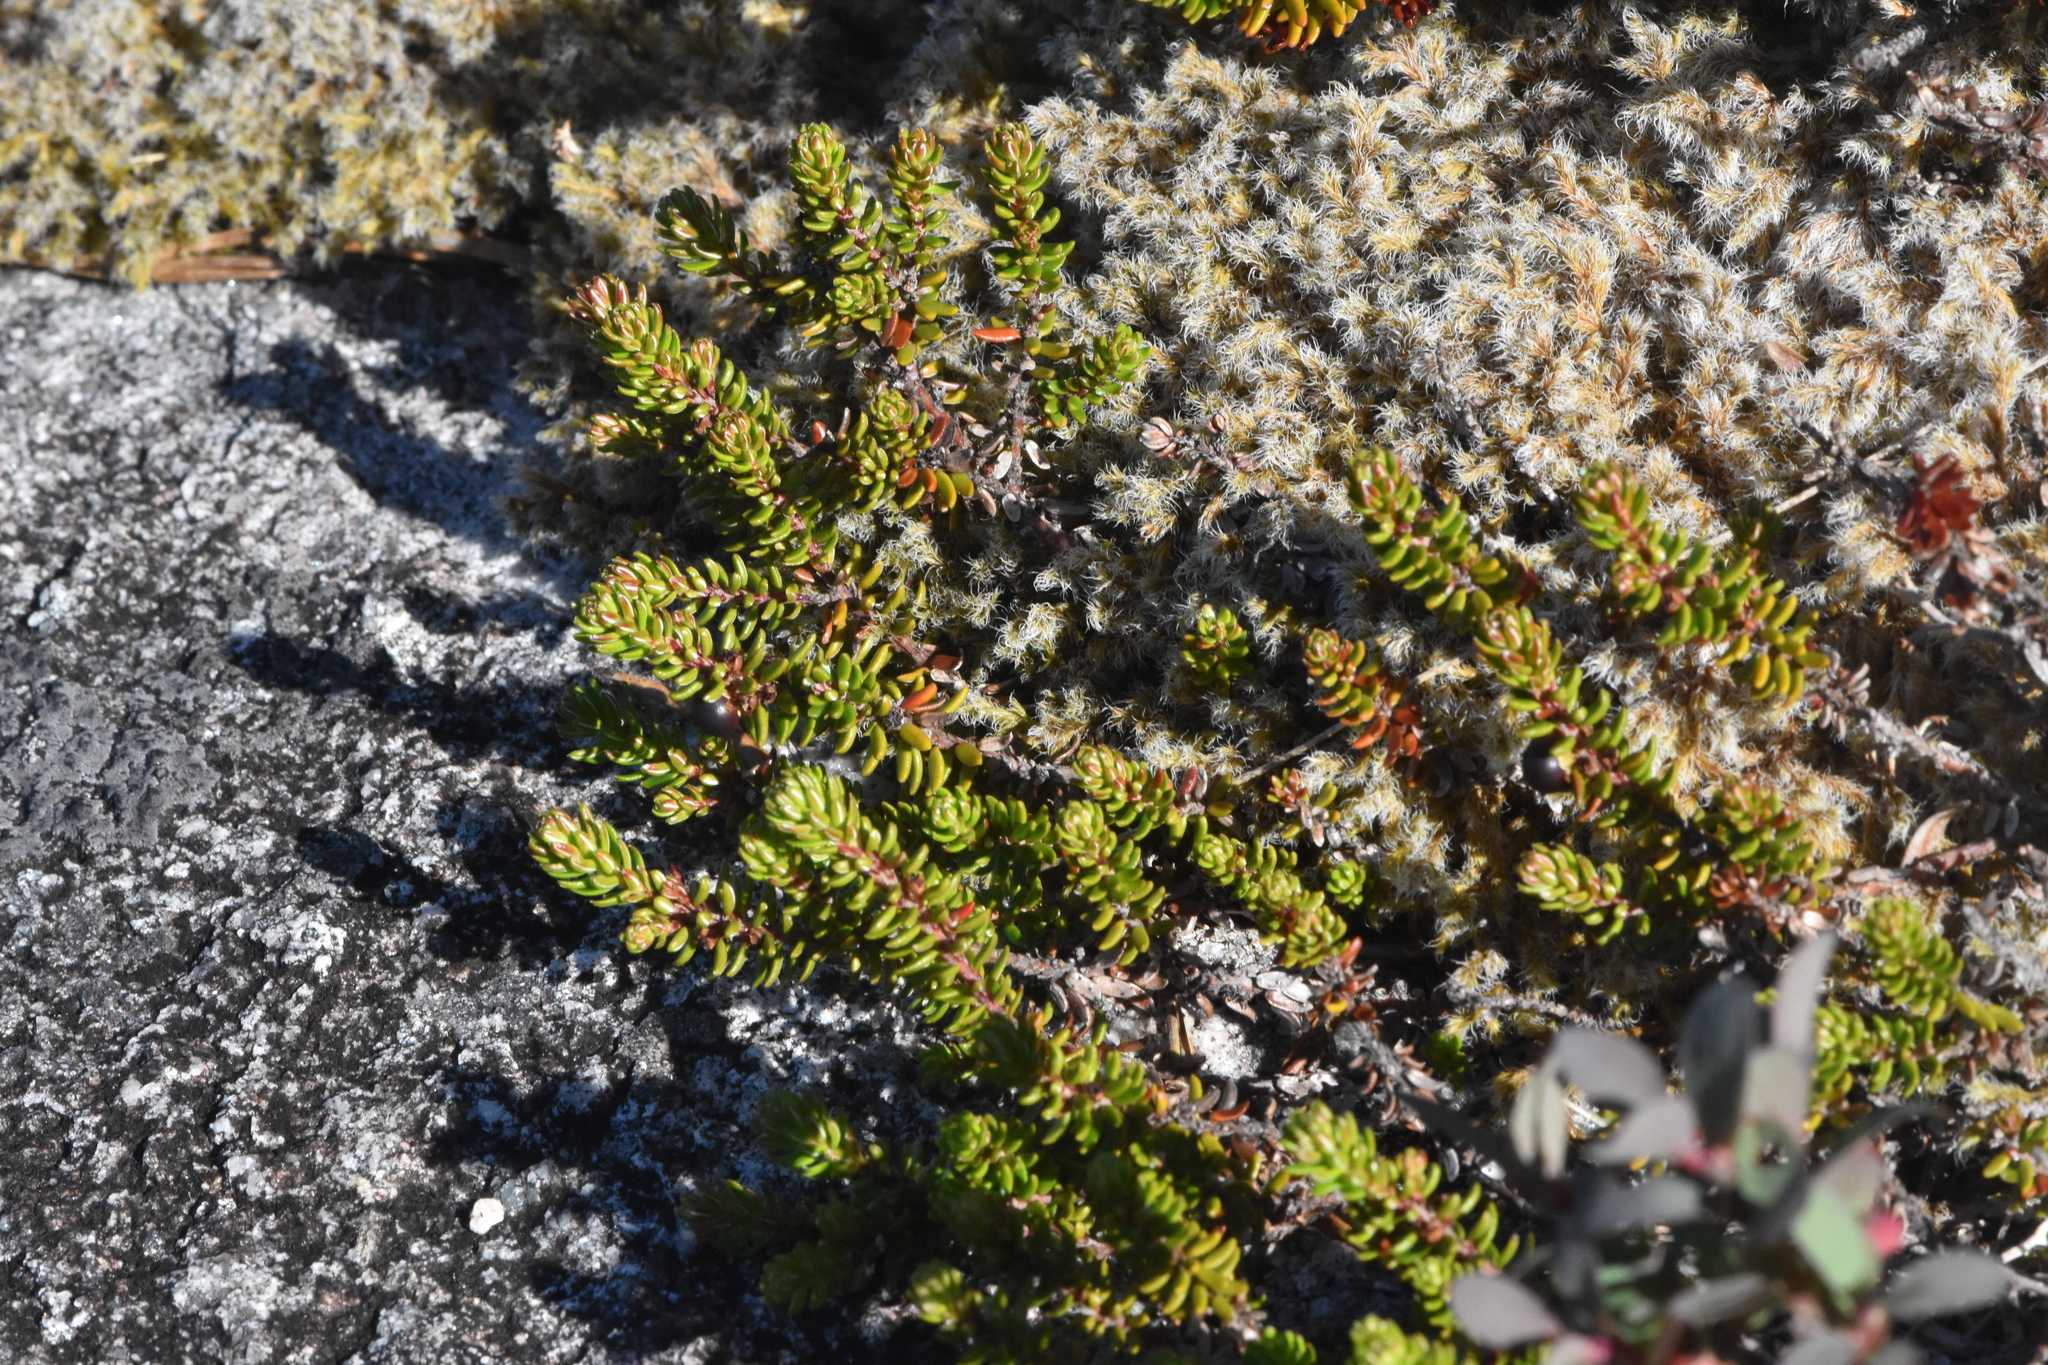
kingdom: Plantae
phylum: Tracheophyta
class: Magnoliopsida
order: Ericales
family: Ericaceae
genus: Empetrum
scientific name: Empetrum nigrum
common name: Black crowberry
